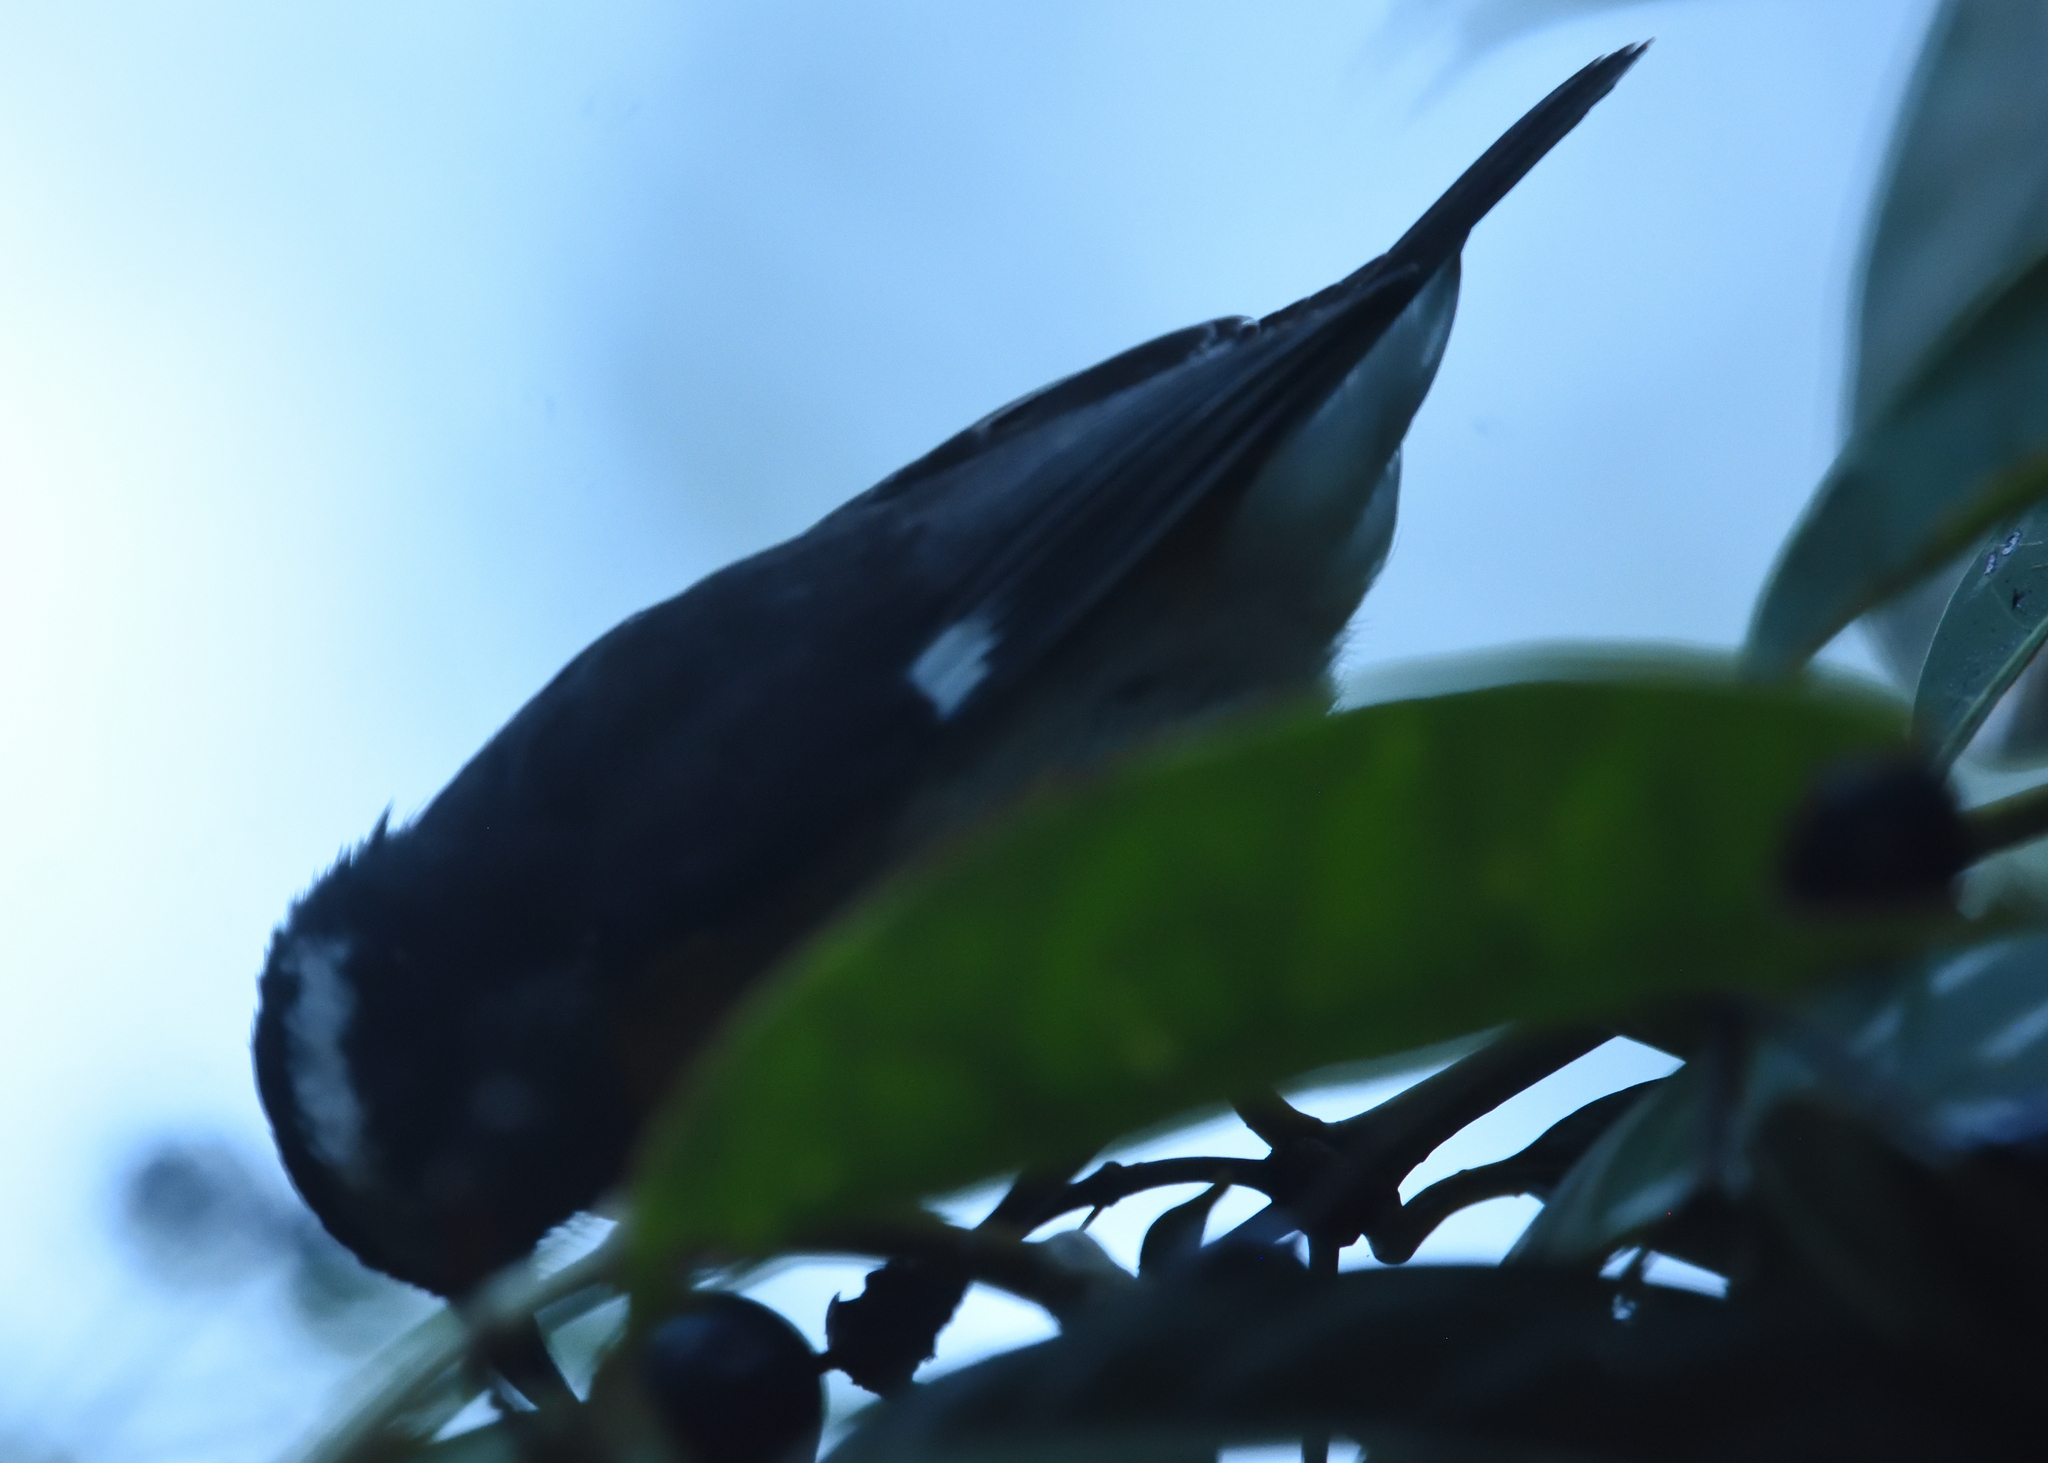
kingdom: Animalia
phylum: Chordata
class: Aves
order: Passeriformes
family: Thraupidae
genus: Coereba
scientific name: Coereba flaveola
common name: Bananaquit
